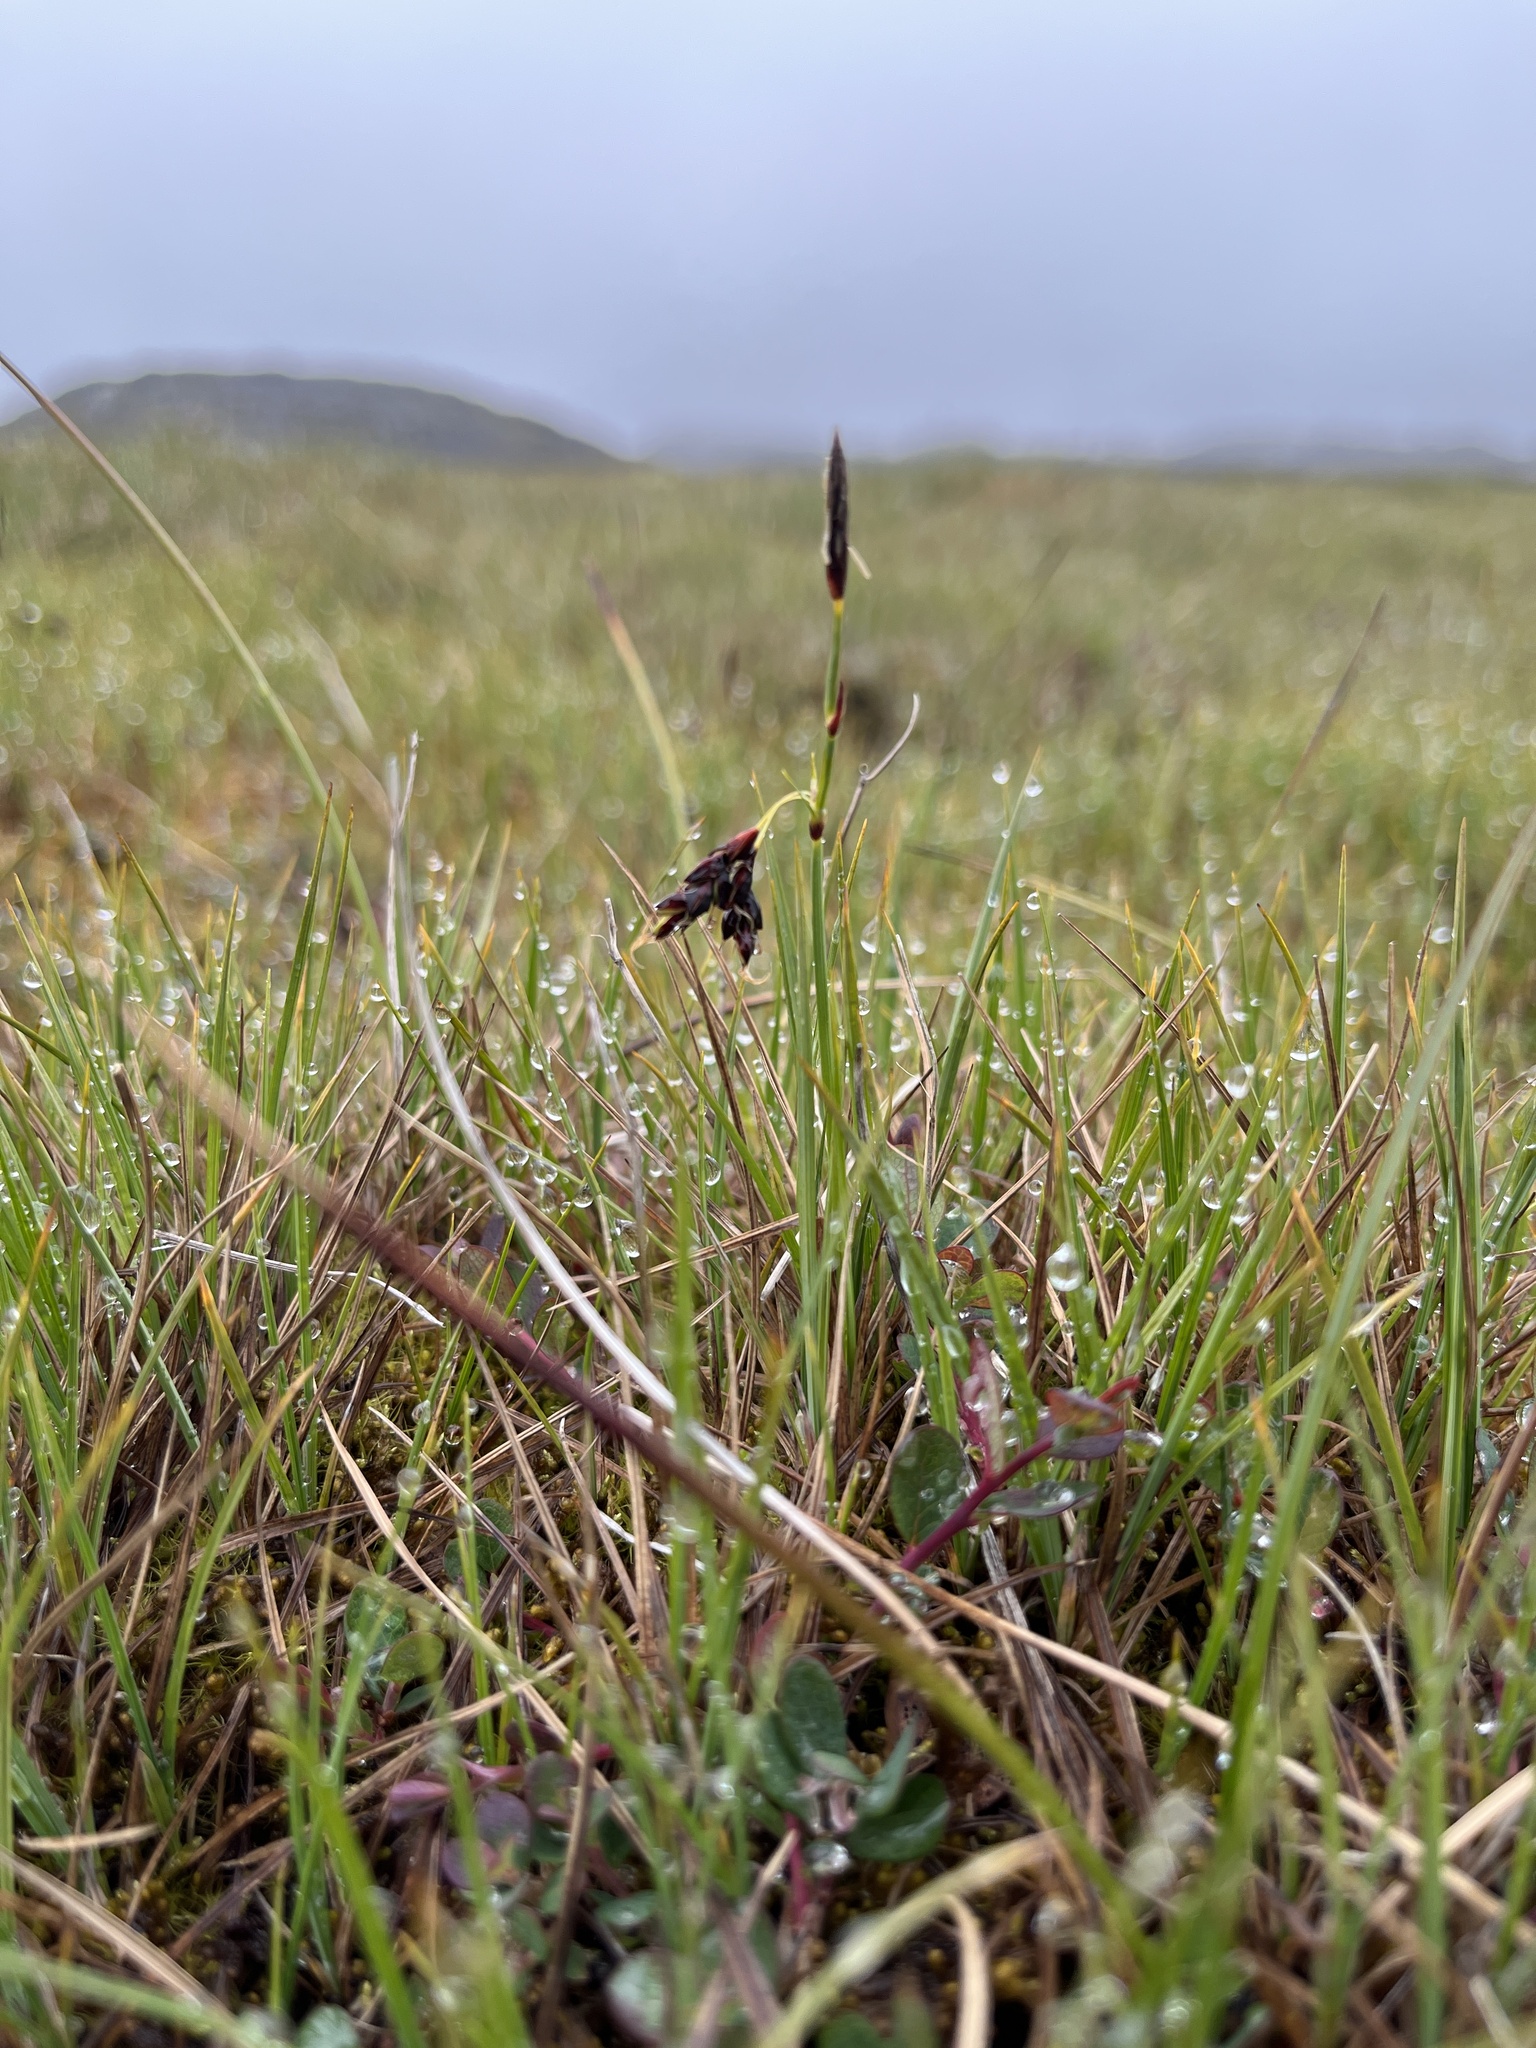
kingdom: Plantae
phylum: Tracheophyta
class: Liliopsida
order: Poales
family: Cyperaceae
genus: Carex
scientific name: Carex rariflora
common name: Loose-flowered alpine sedge
